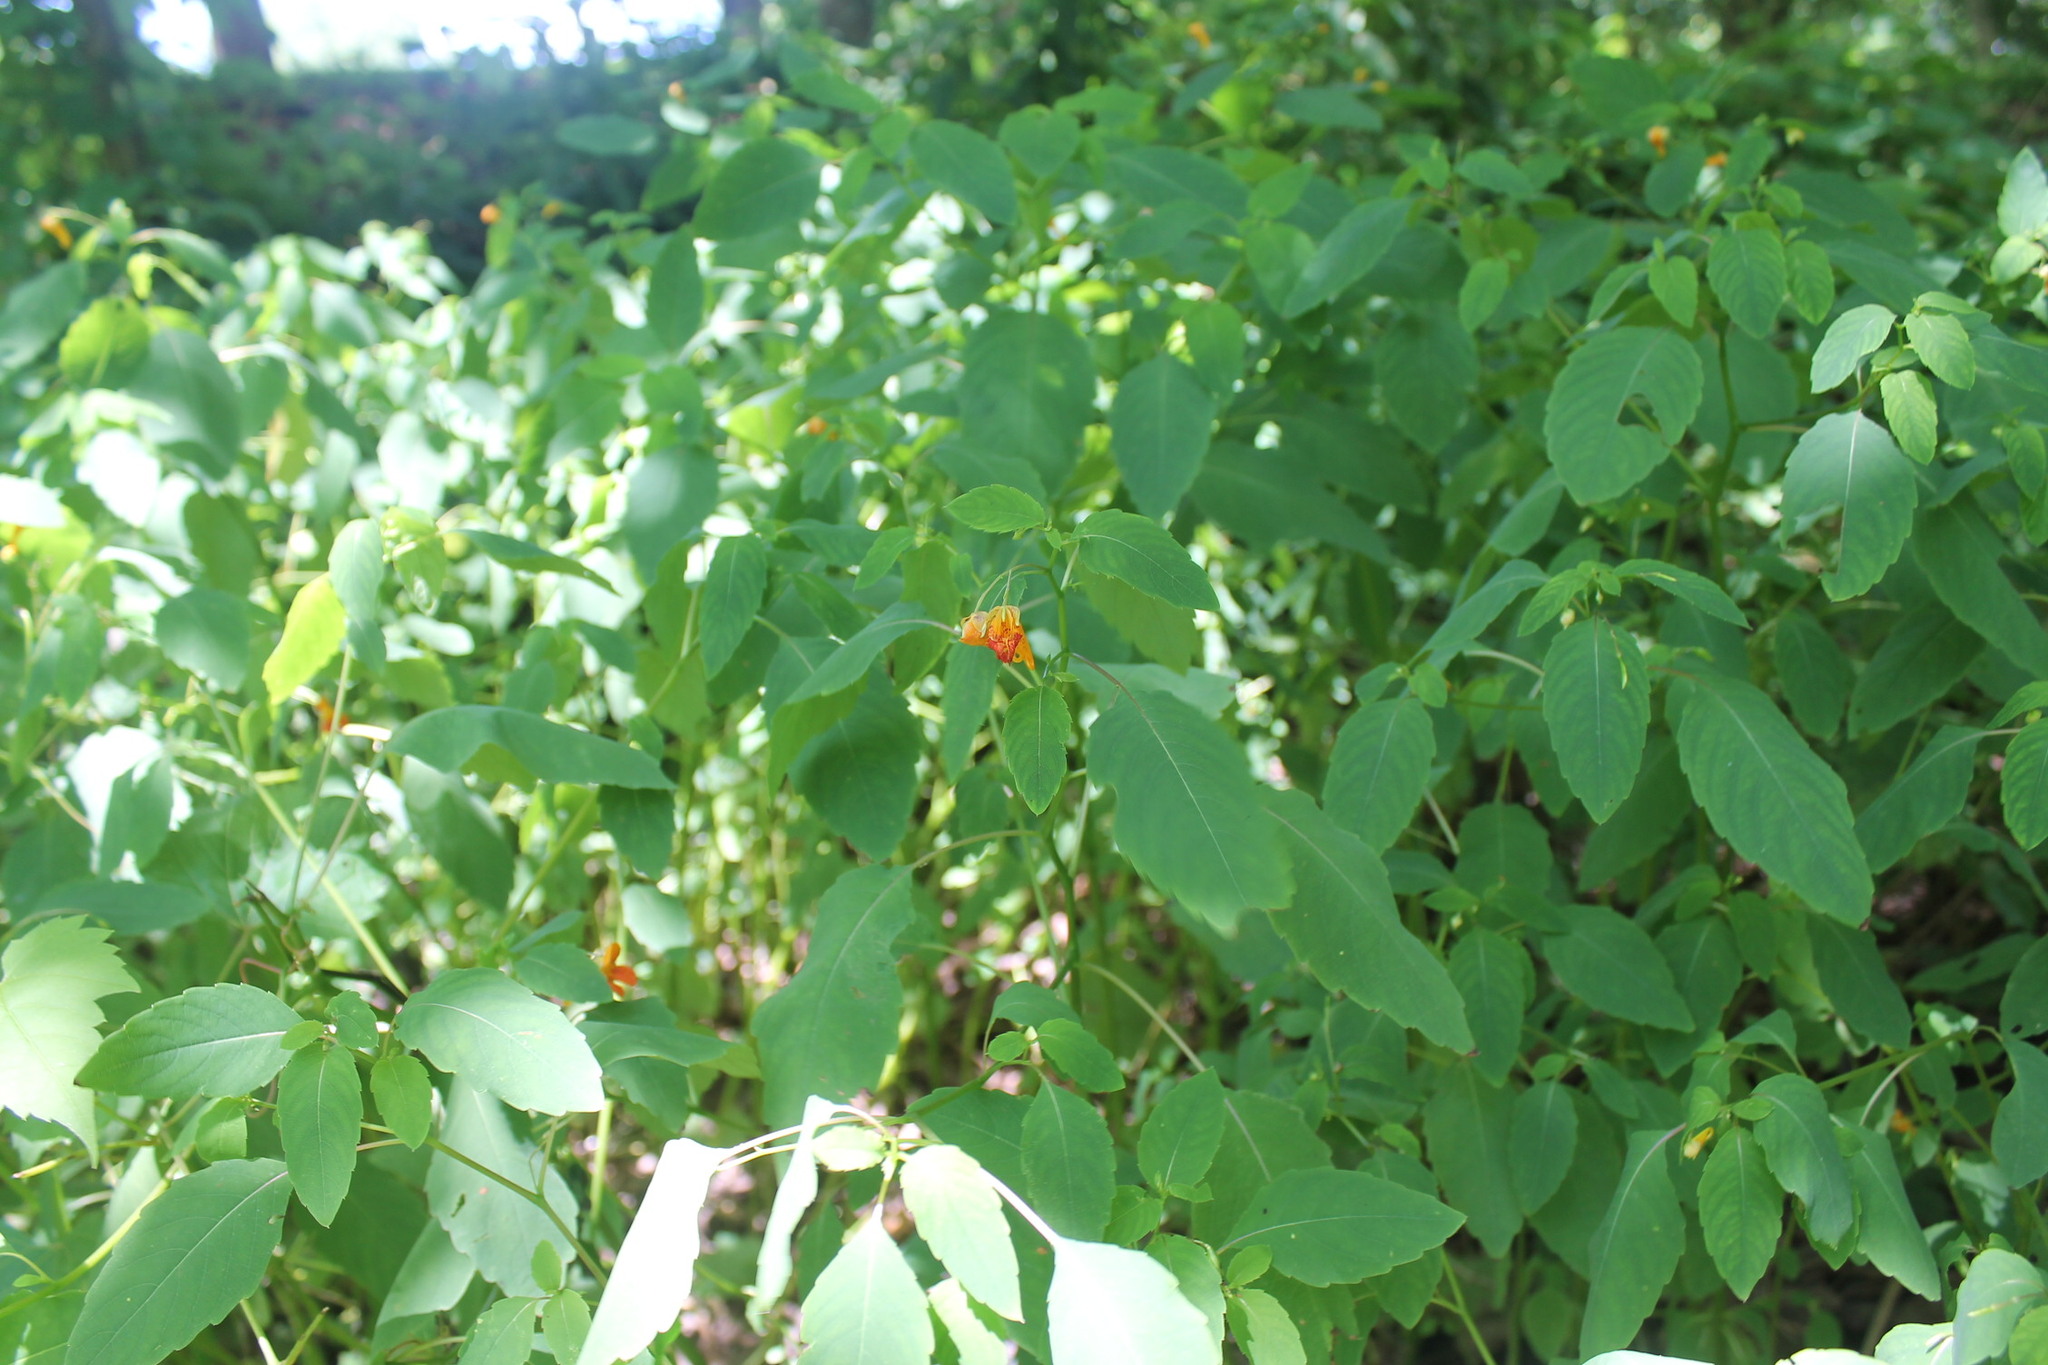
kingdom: Plantae
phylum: Tracheophyta
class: Magnoliopsida
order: Ericales
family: Balsaminaceae
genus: Impatiens
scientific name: Impatiens capensis
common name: Orange balsam
